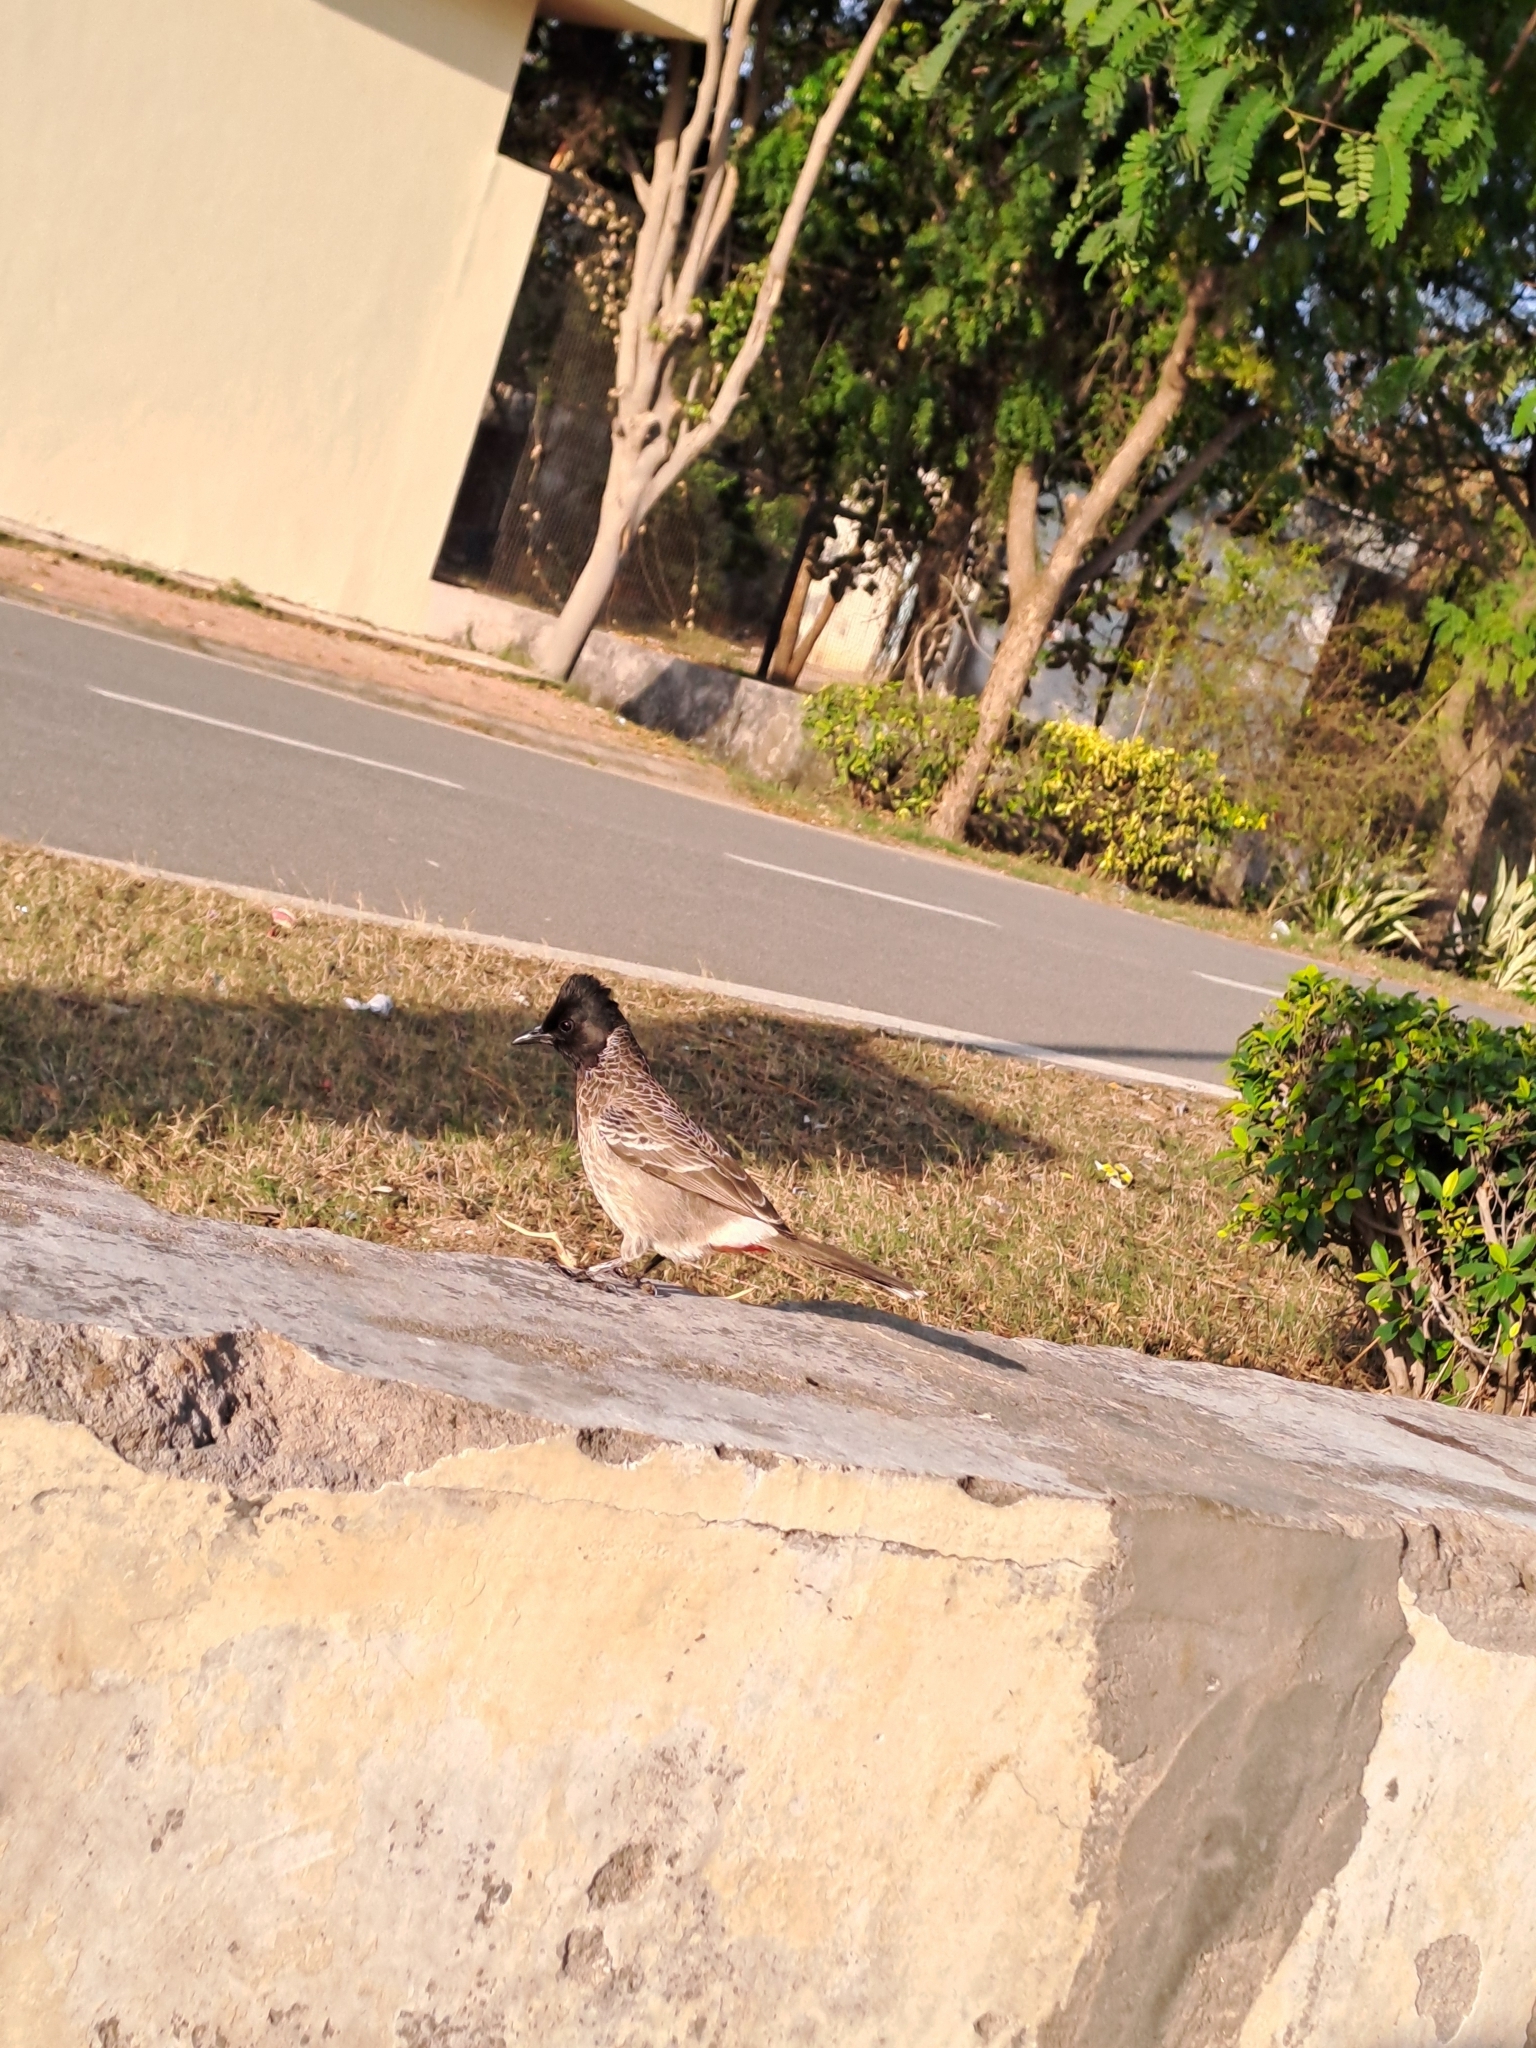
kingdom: Animalia
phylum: Chordata
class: Aves
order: Passeriformes
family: Pycnonotidae
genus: Pycnonotus
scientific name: Pycnonotus cafer
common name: Red-vented bulbul
